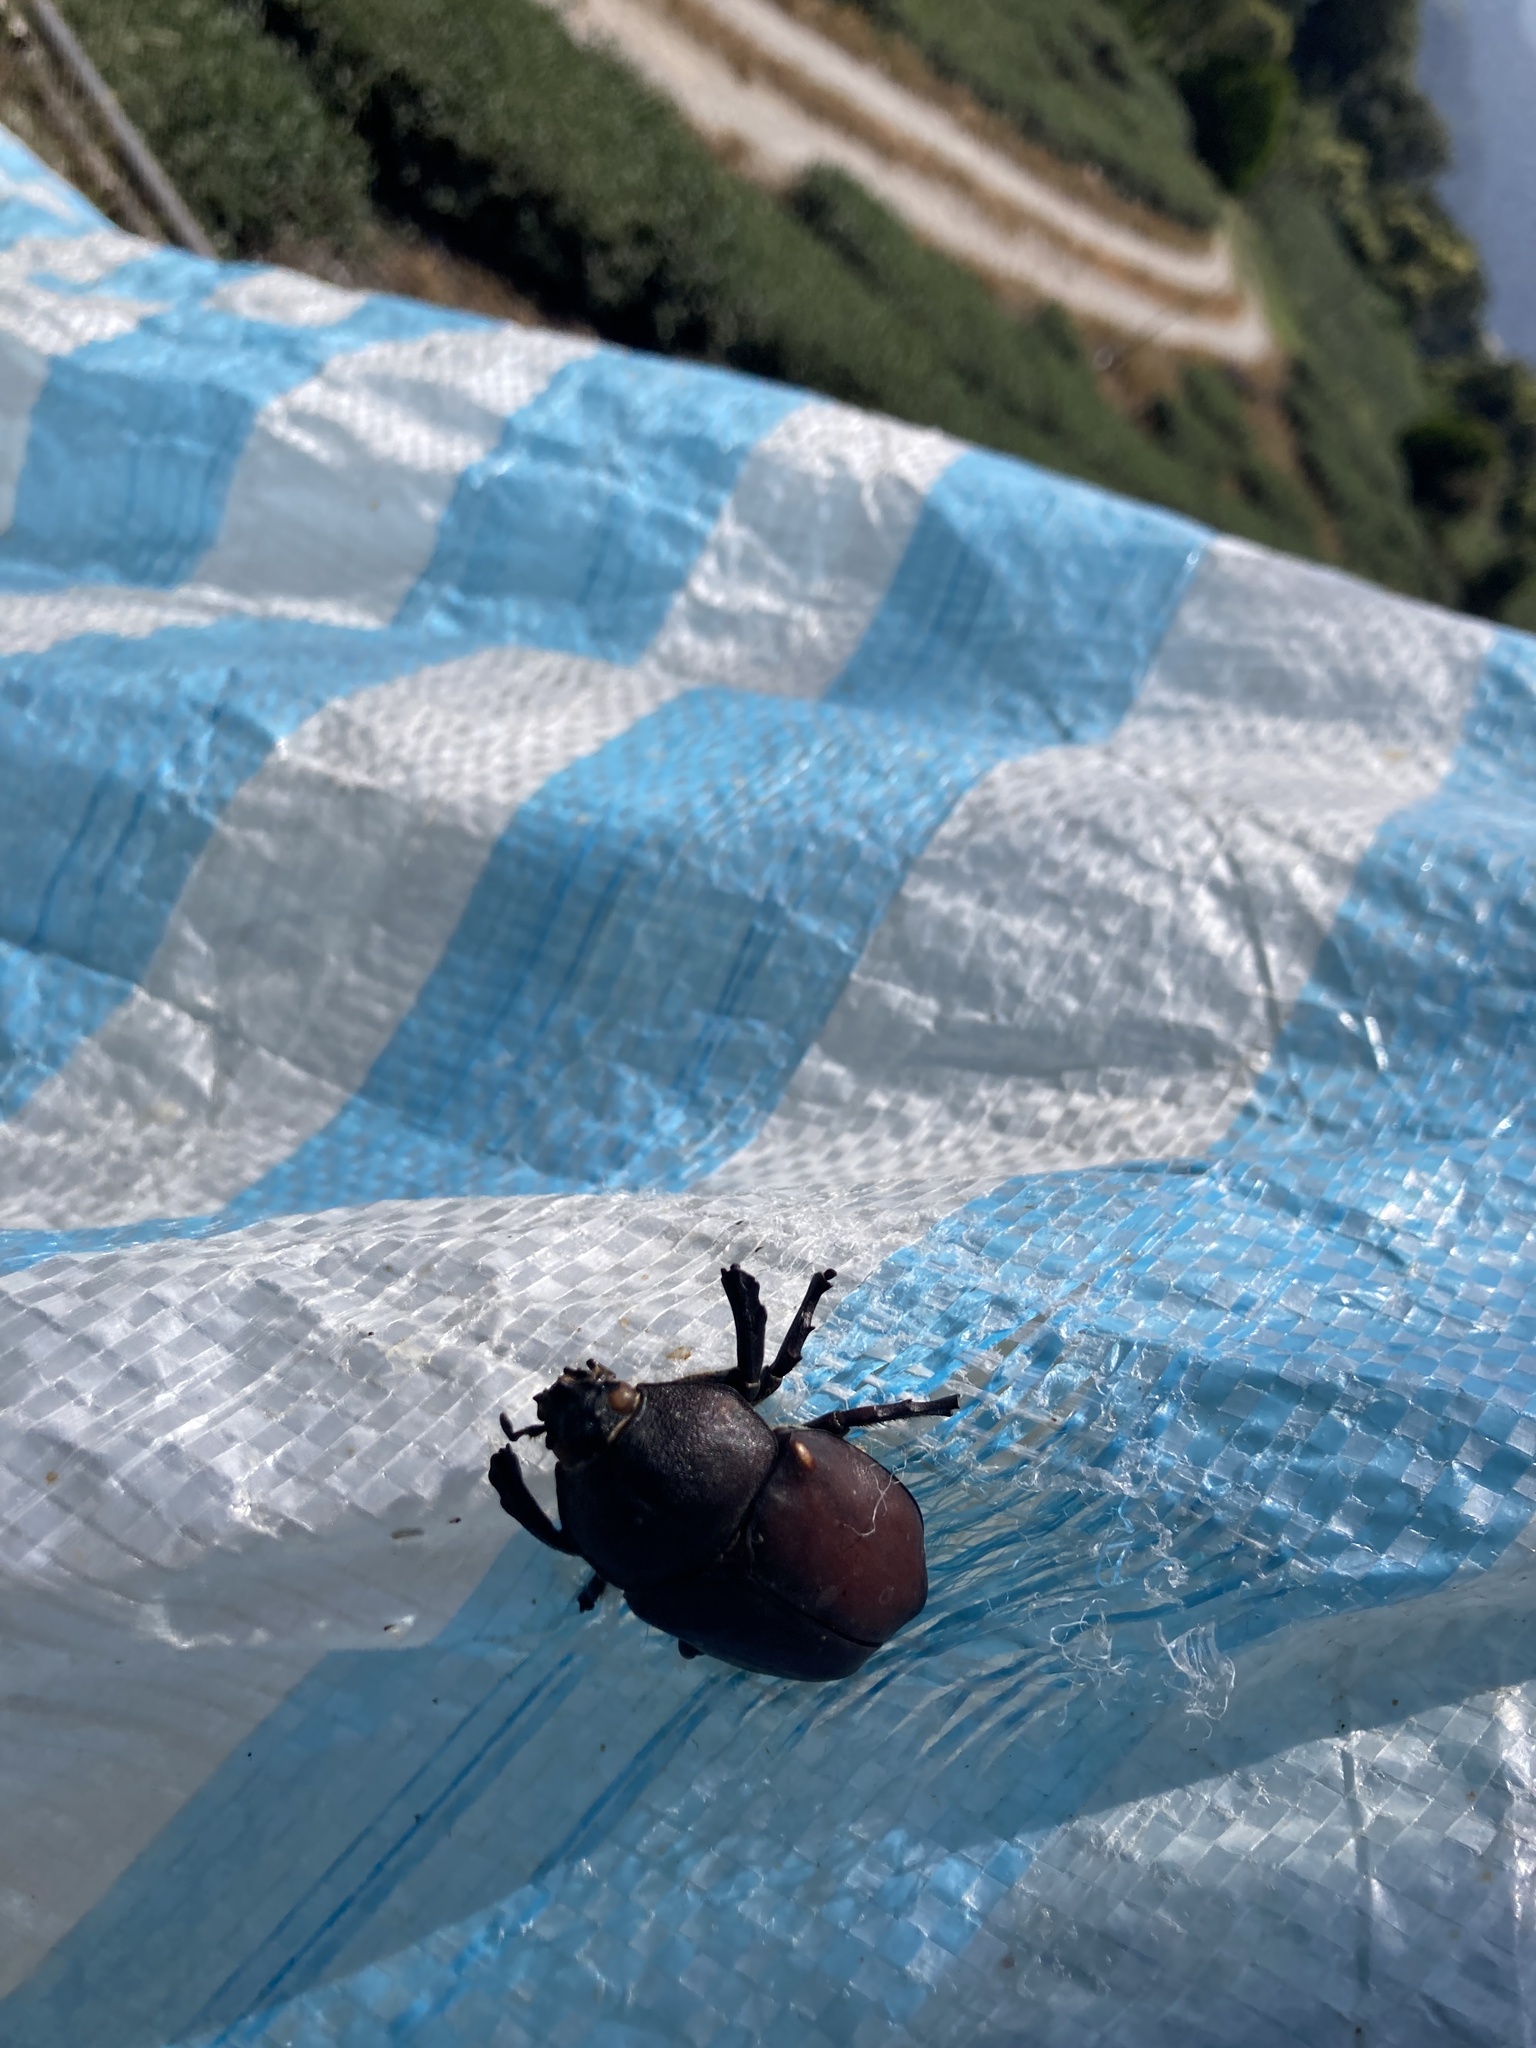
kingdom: Animalia
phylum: Arthropoda
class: Insecta
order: Coleoptera
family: Scarabaeidae
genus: Trypoxylus
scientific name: Trypoxylus dichotomus
